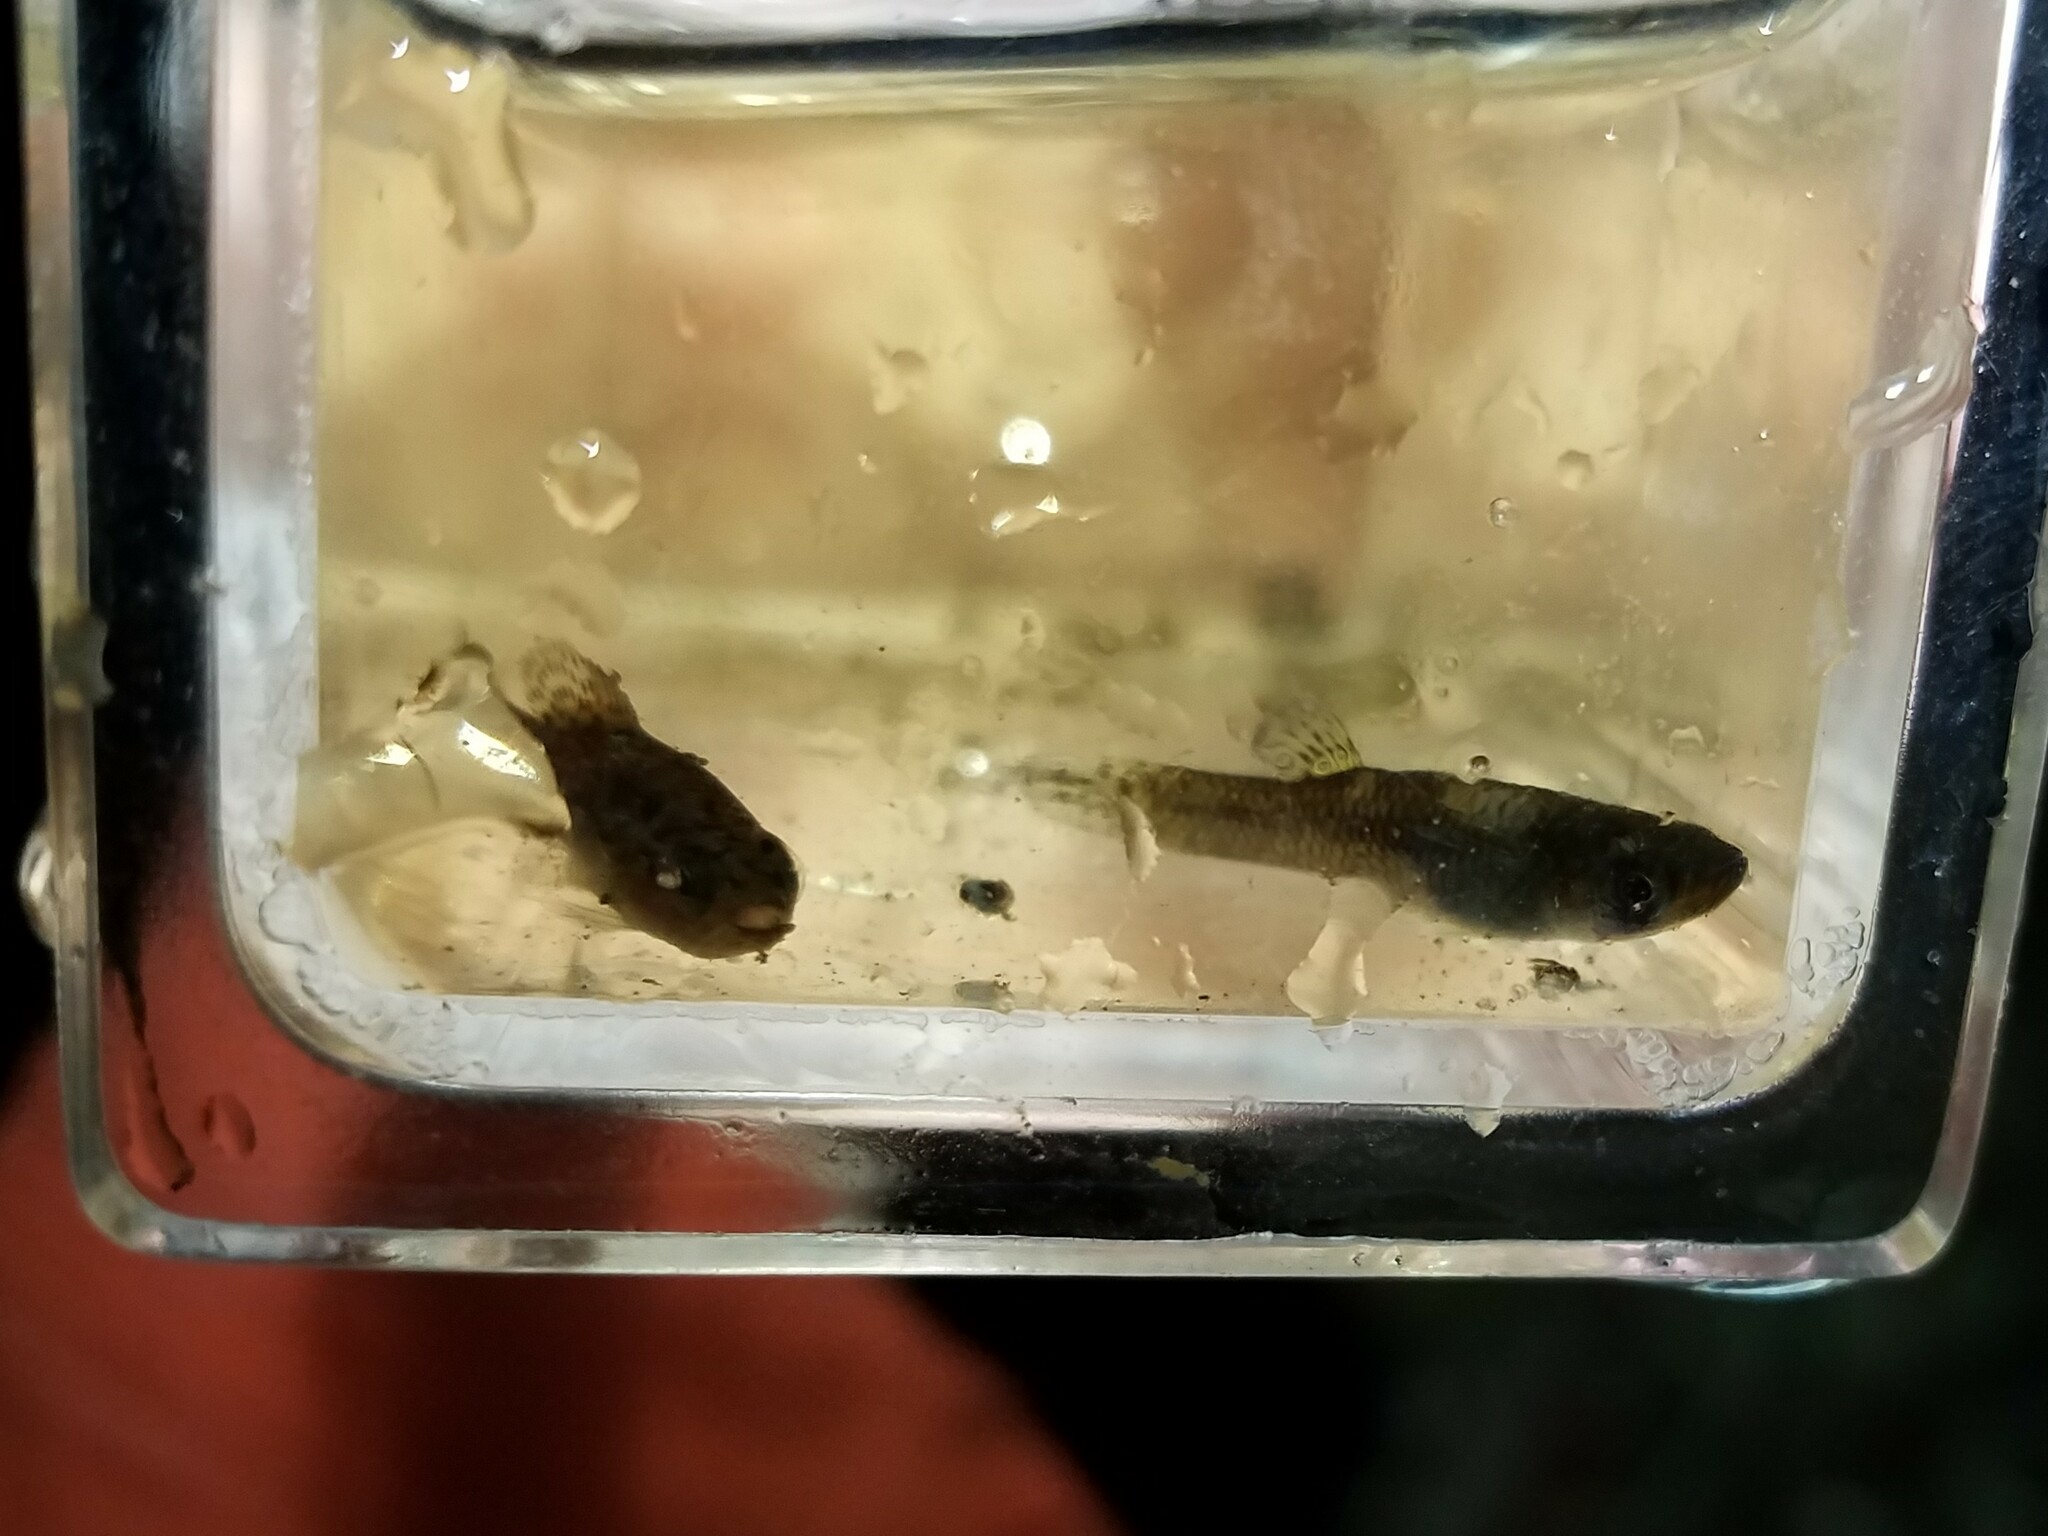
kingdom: Animalia
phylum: Chordata
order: Perciformes
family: Elassomatidae
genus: Elassoma
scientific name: Elassoma evergladei
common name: Everglades pygmy sunfish
